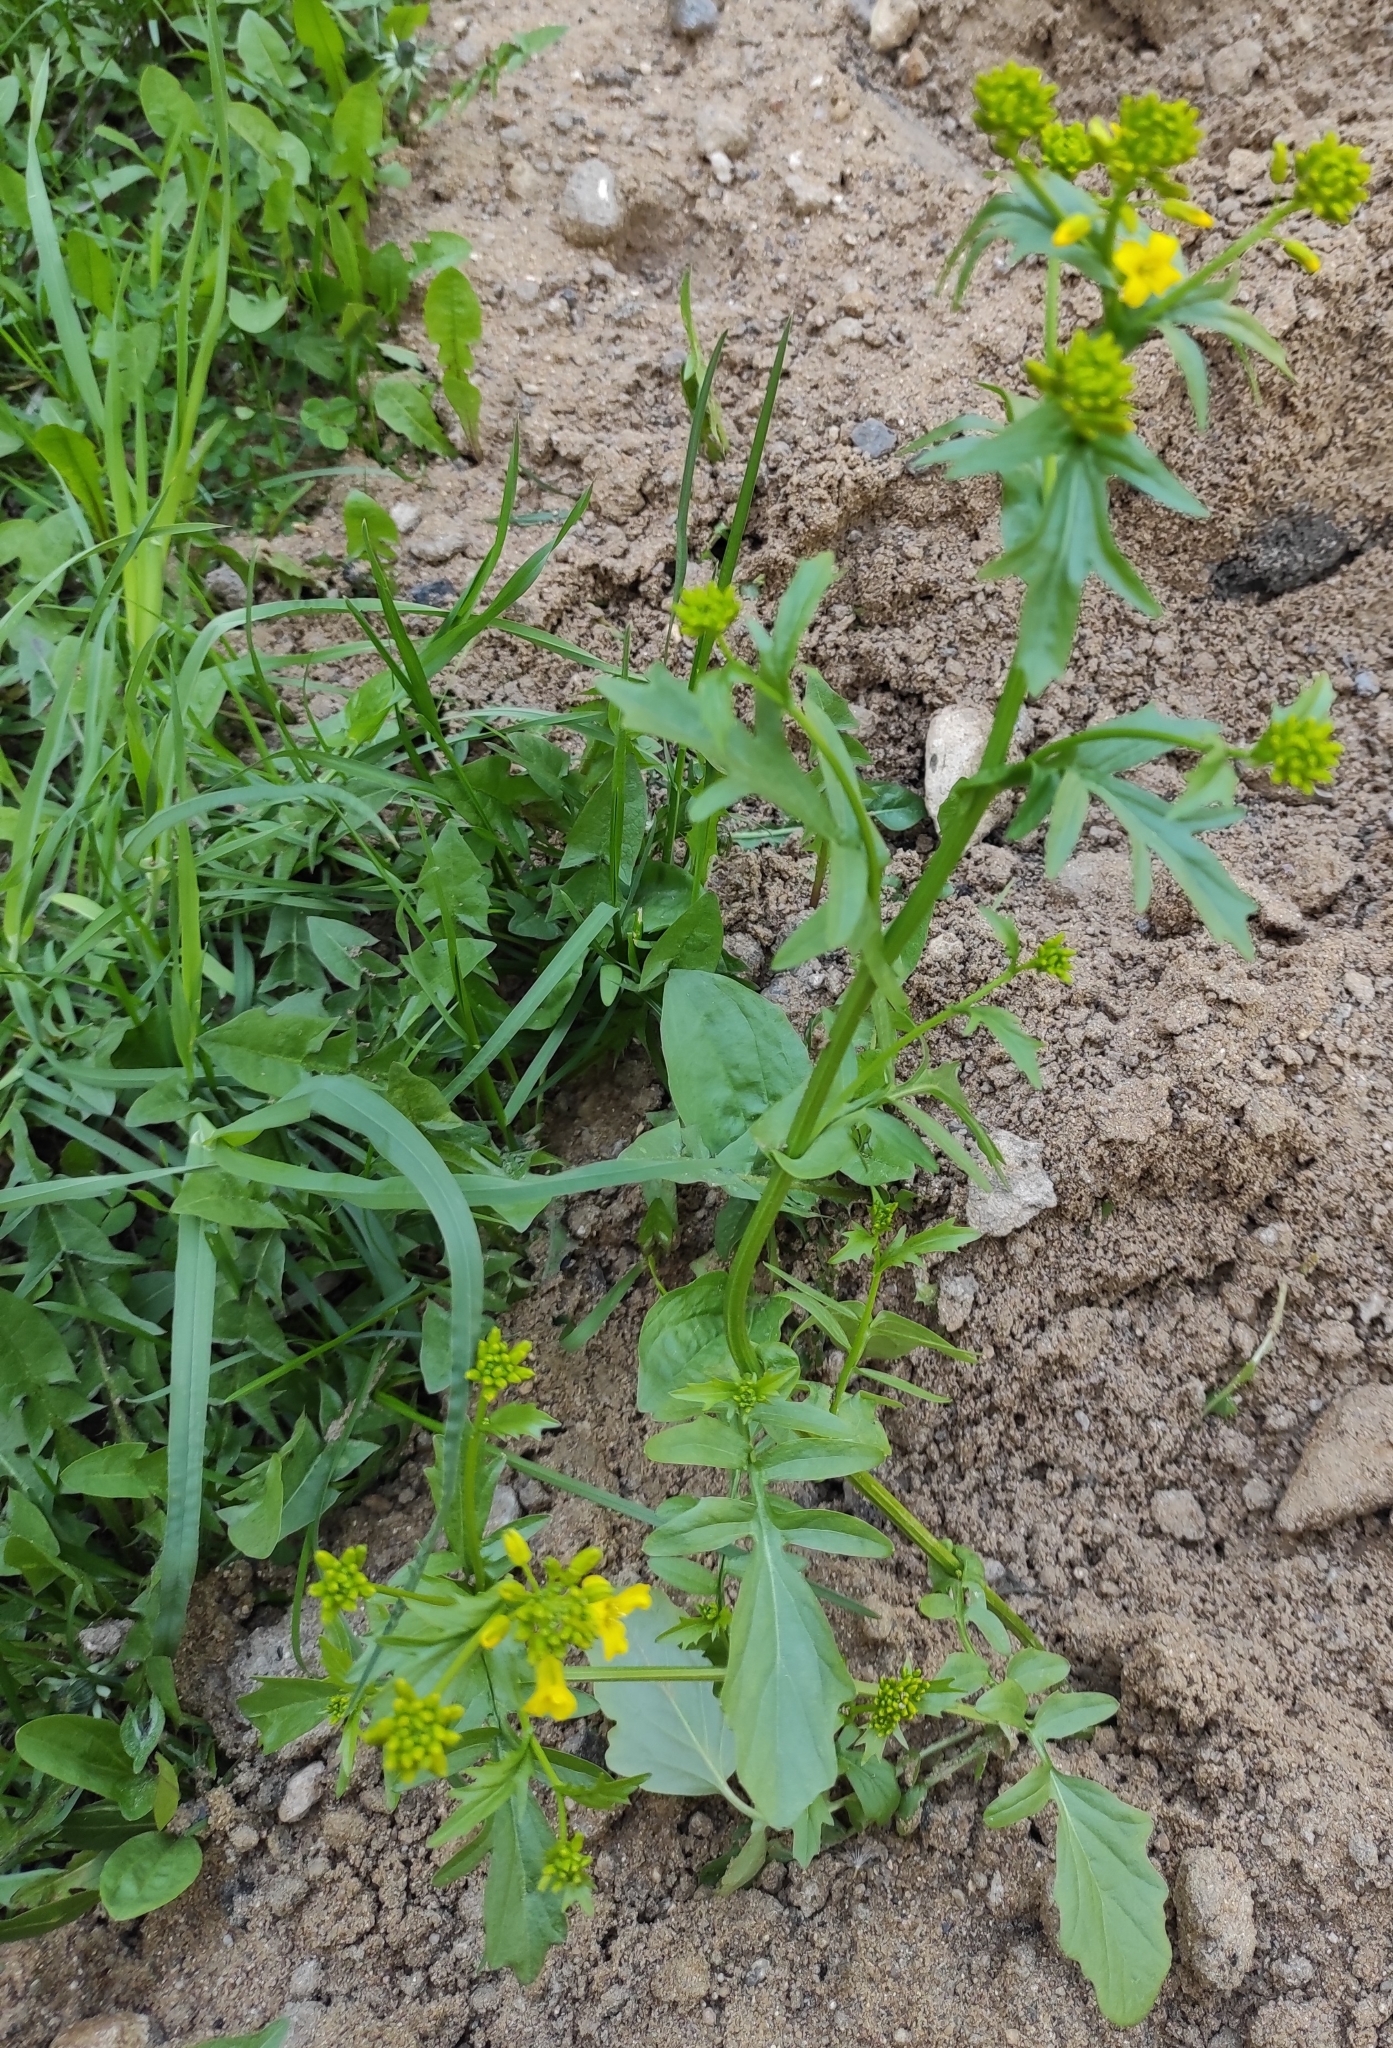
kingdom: Plantae
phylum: Tracheophyta
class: Magnoliopsida
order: Brassicales
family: Brassicaceae
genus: Barbarea
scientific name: Barbarea vulgaris
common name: Cressy-greens
